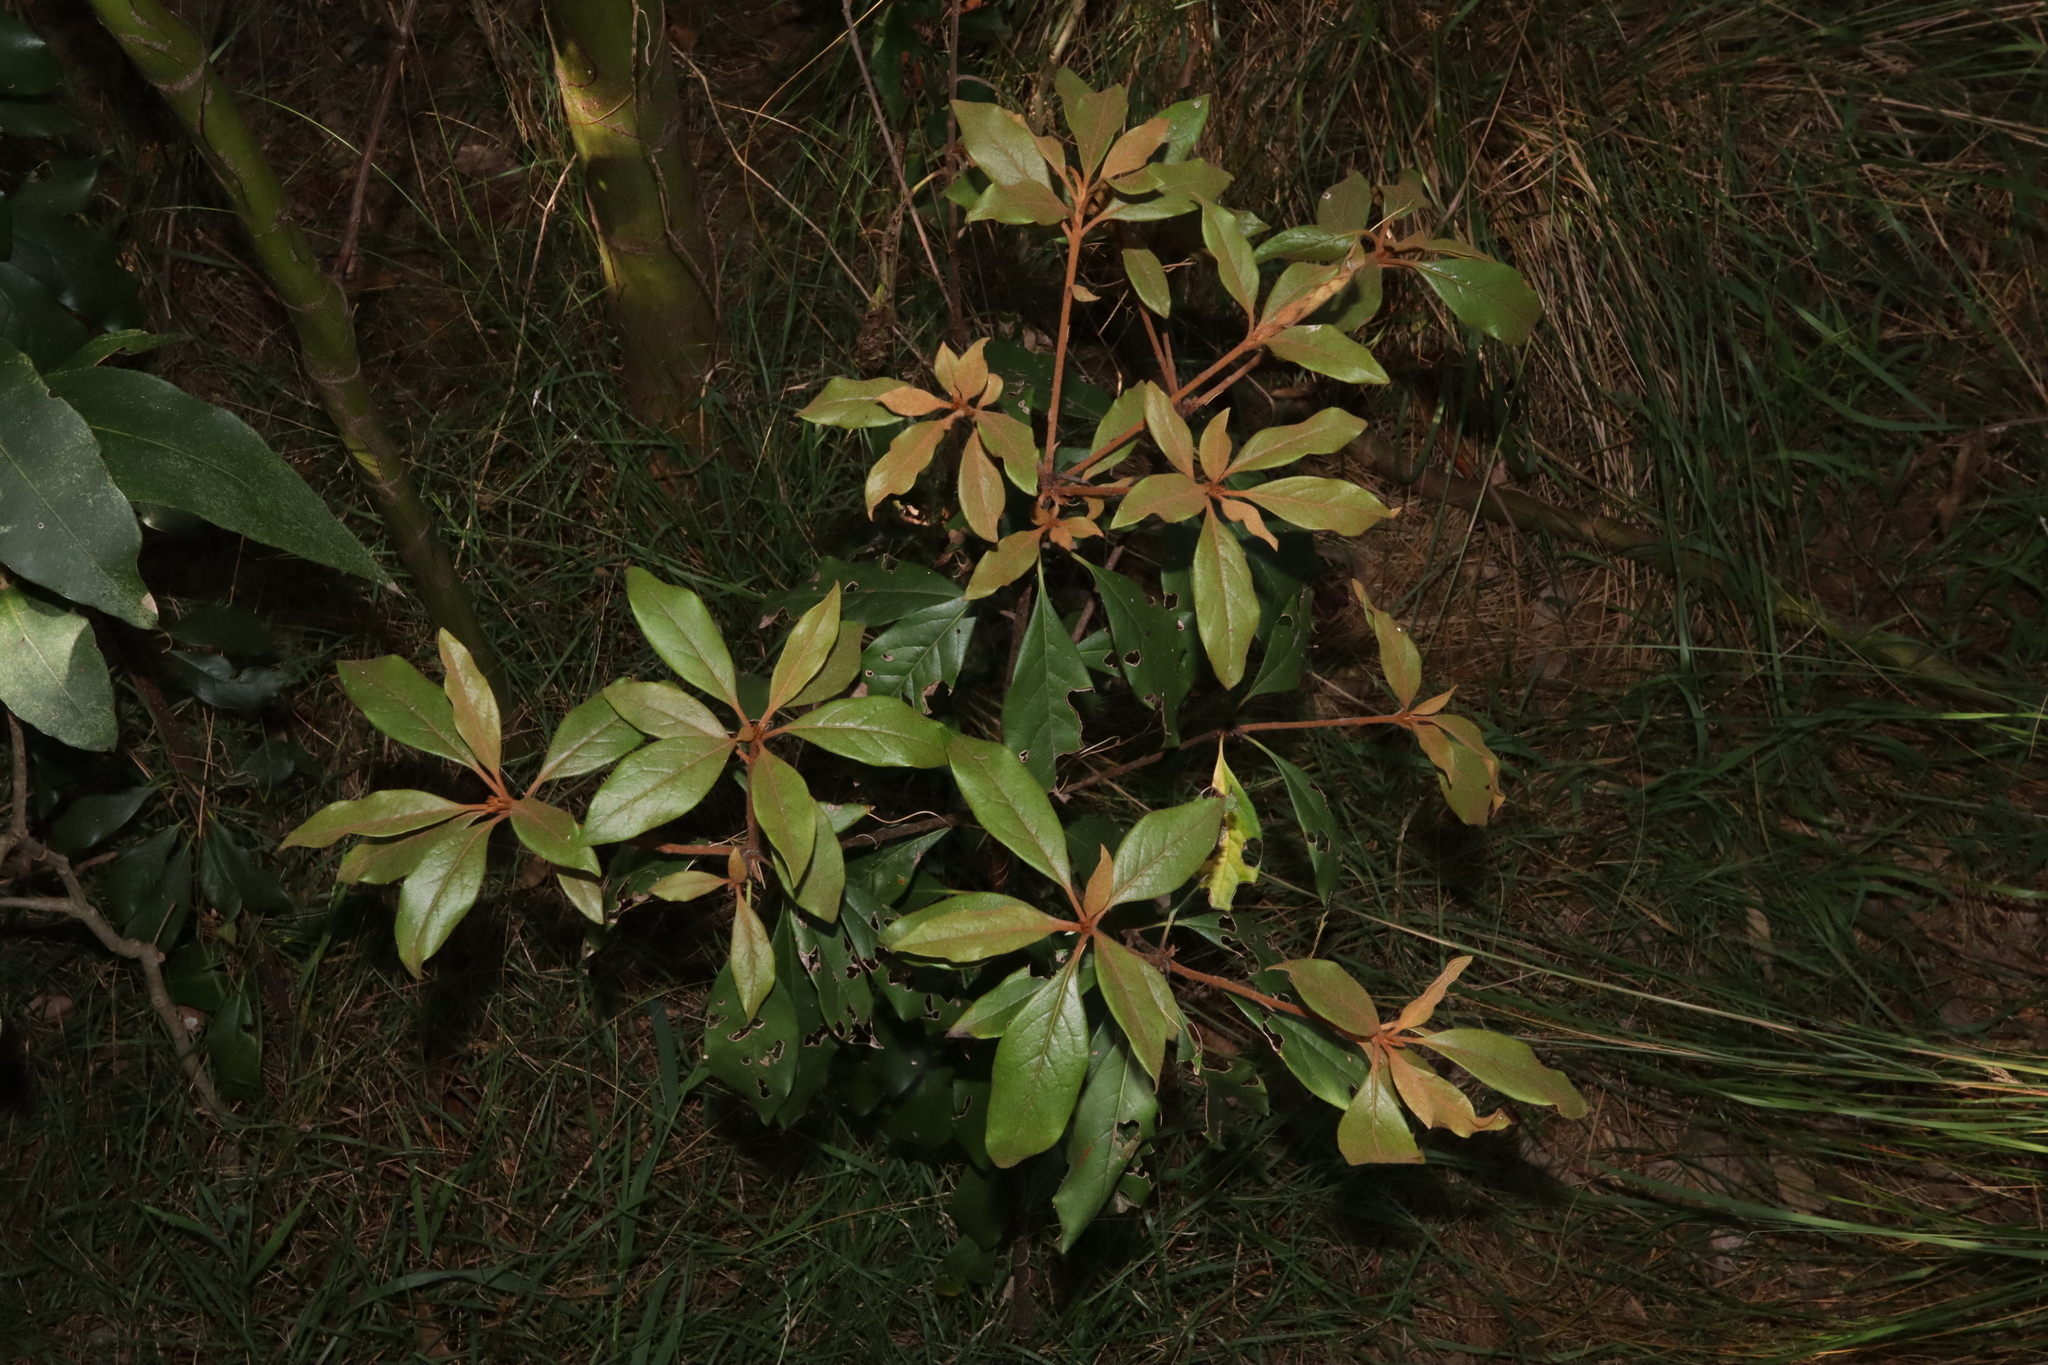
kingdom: Plantae
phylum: Tracheophyta
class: Magnoliopsida
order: Apiales
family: Pittosporaceae
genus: Pittosporum
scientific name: Pittosporum revolutum
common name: Brisbane-laurel
